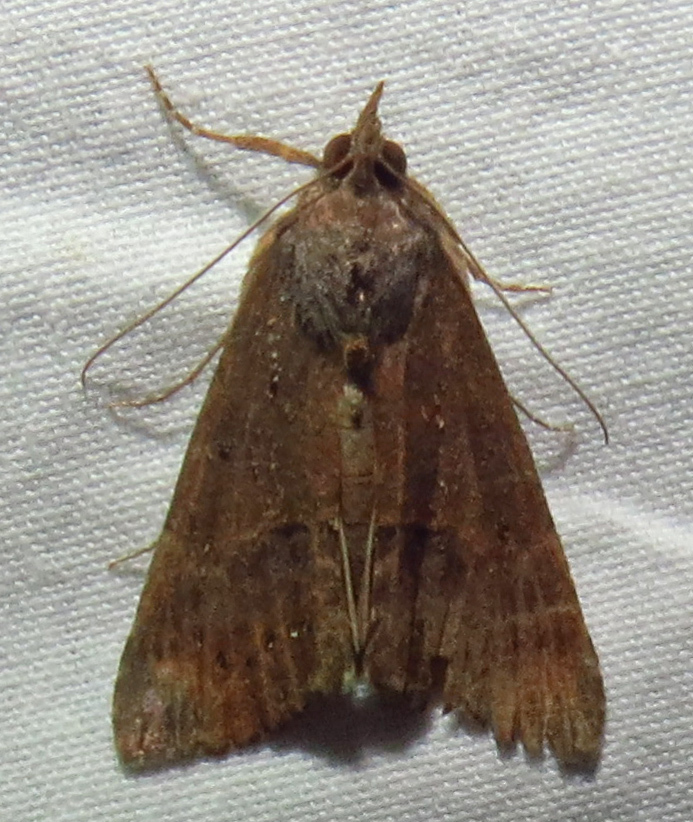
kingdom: Animalia
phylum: Arthropoda
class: Insecta
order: Lepidoptera
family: Erebidae
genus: Hypena
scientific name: Hypena scabra
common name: Green cloverworm
